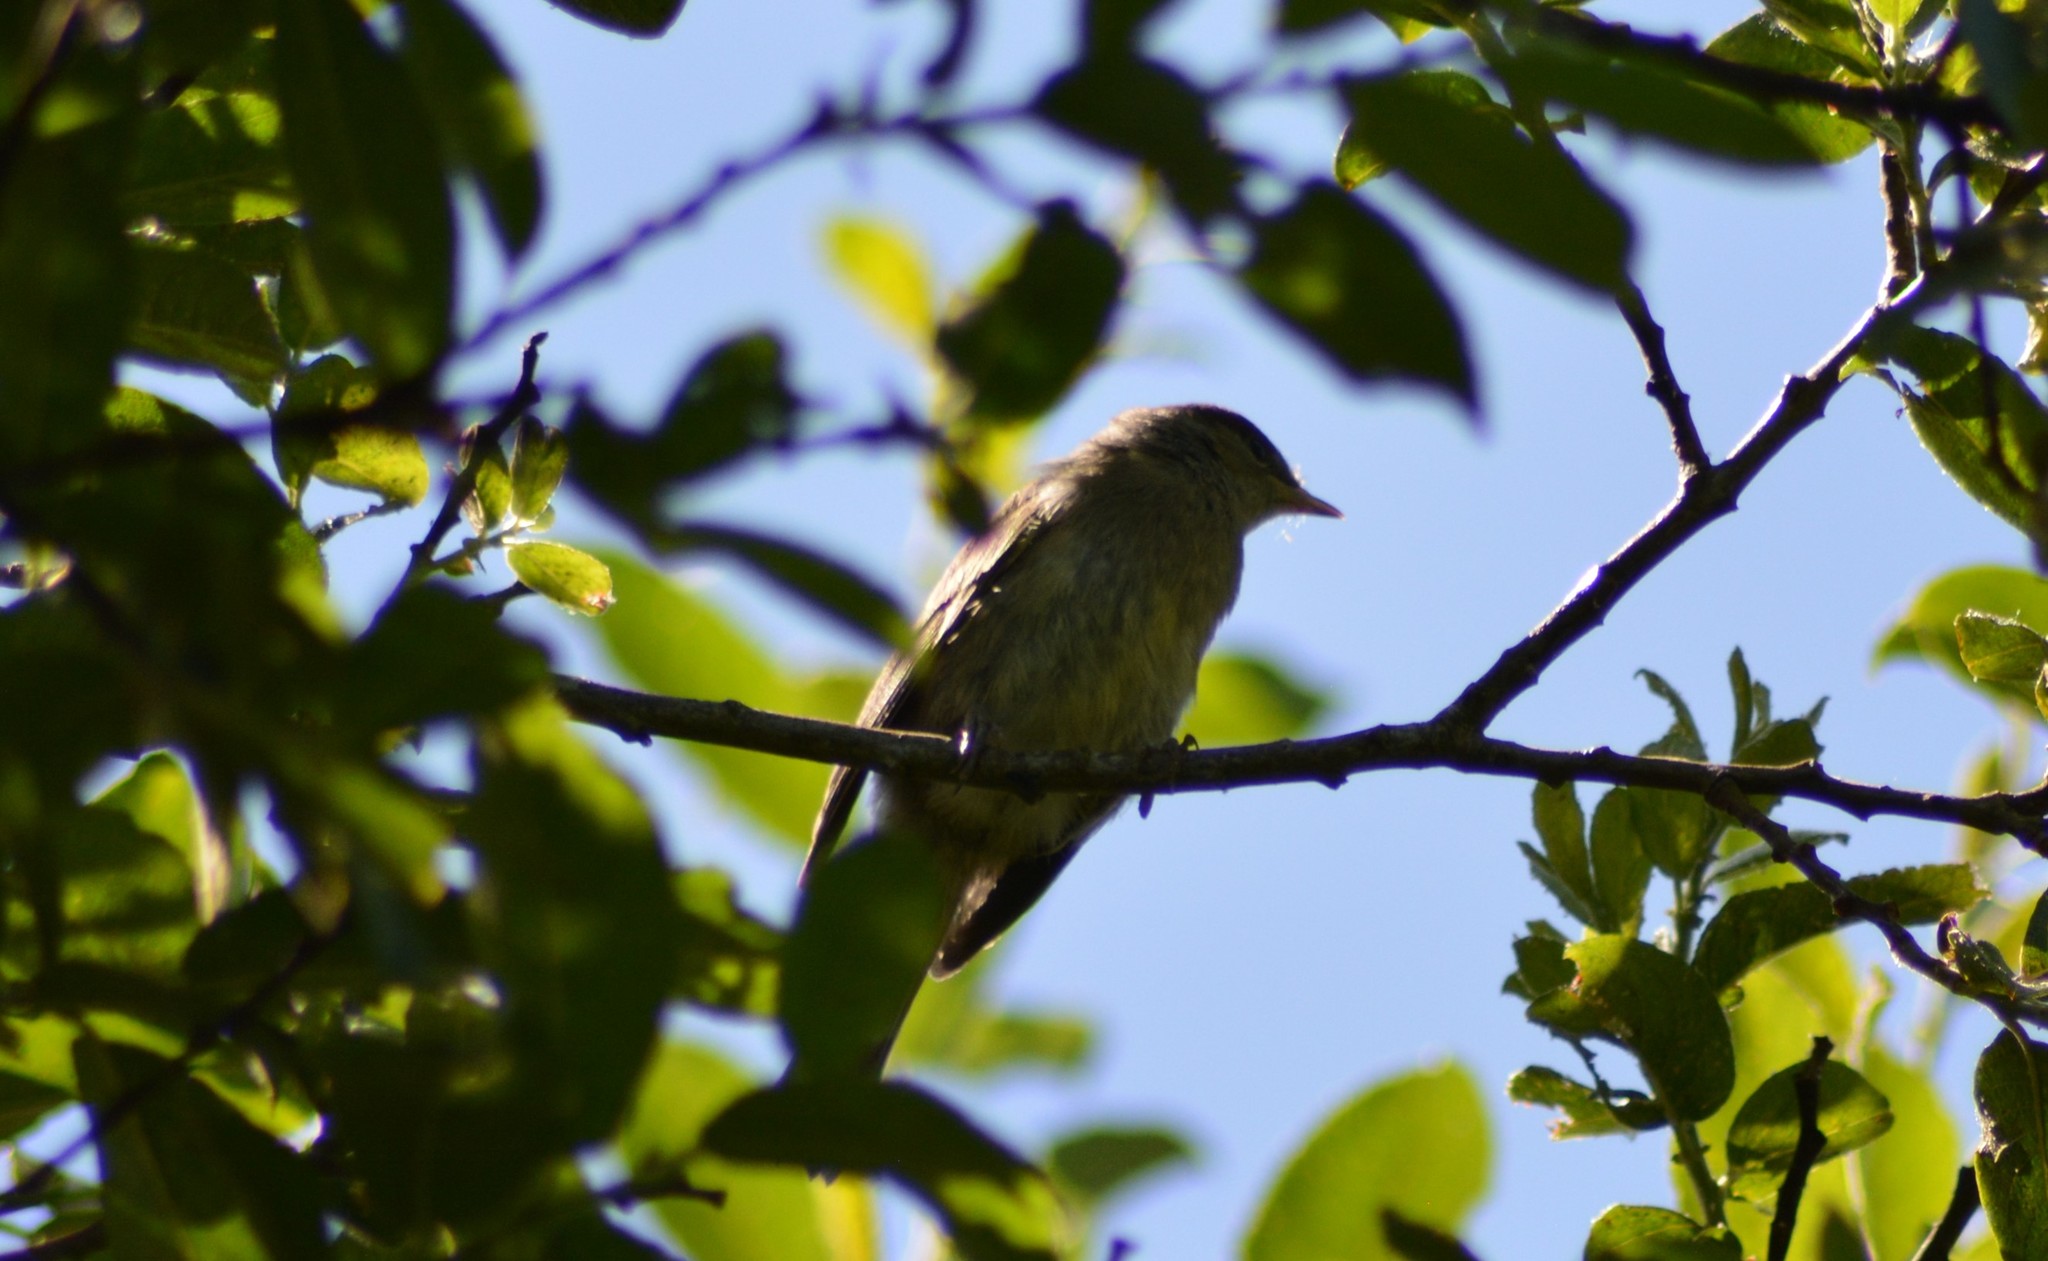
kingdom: Animalia
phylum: Chordata
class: Aves
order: Passeriformes
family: Phylloscopidae
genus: Phylloscopus
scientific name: Phylloscopus collybita
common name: Common chiffchaff
